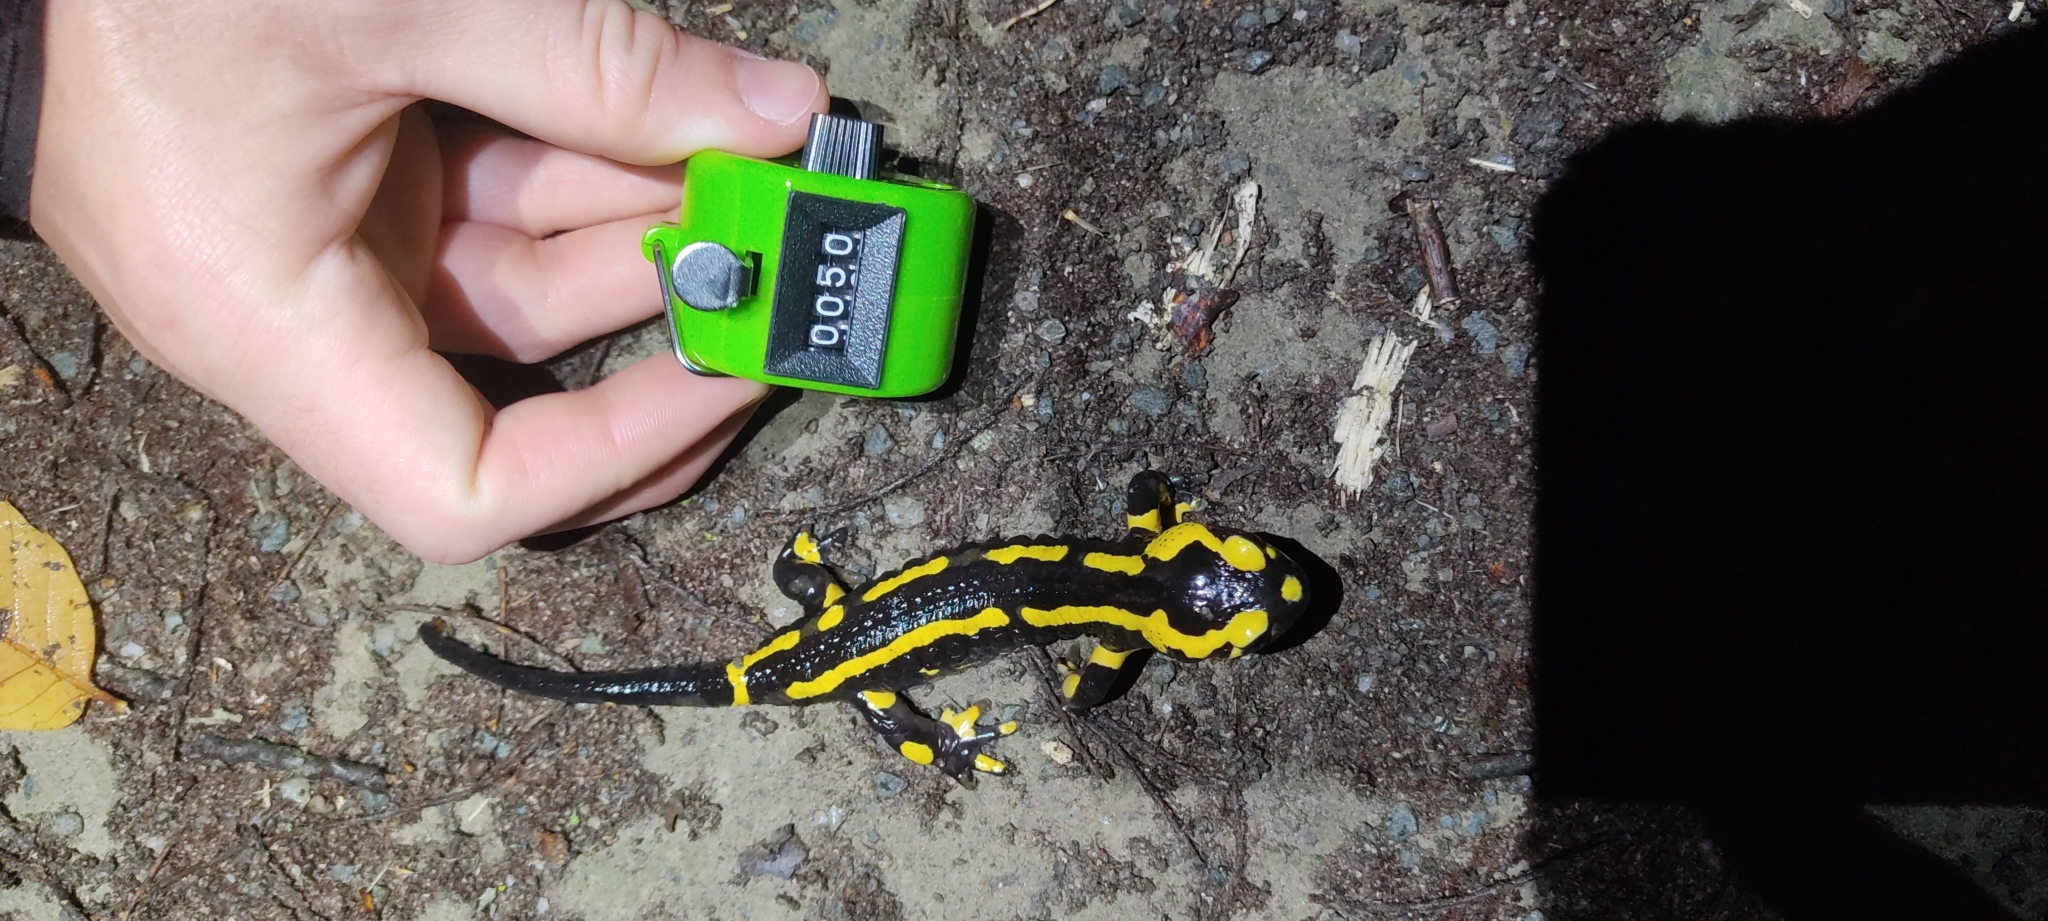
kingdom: Animalia
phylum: Chordata
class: Amphibia
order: Caudata
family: Salamandridae
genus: Salamandra
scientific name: Salamandra salamandra
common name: Fire salamander
